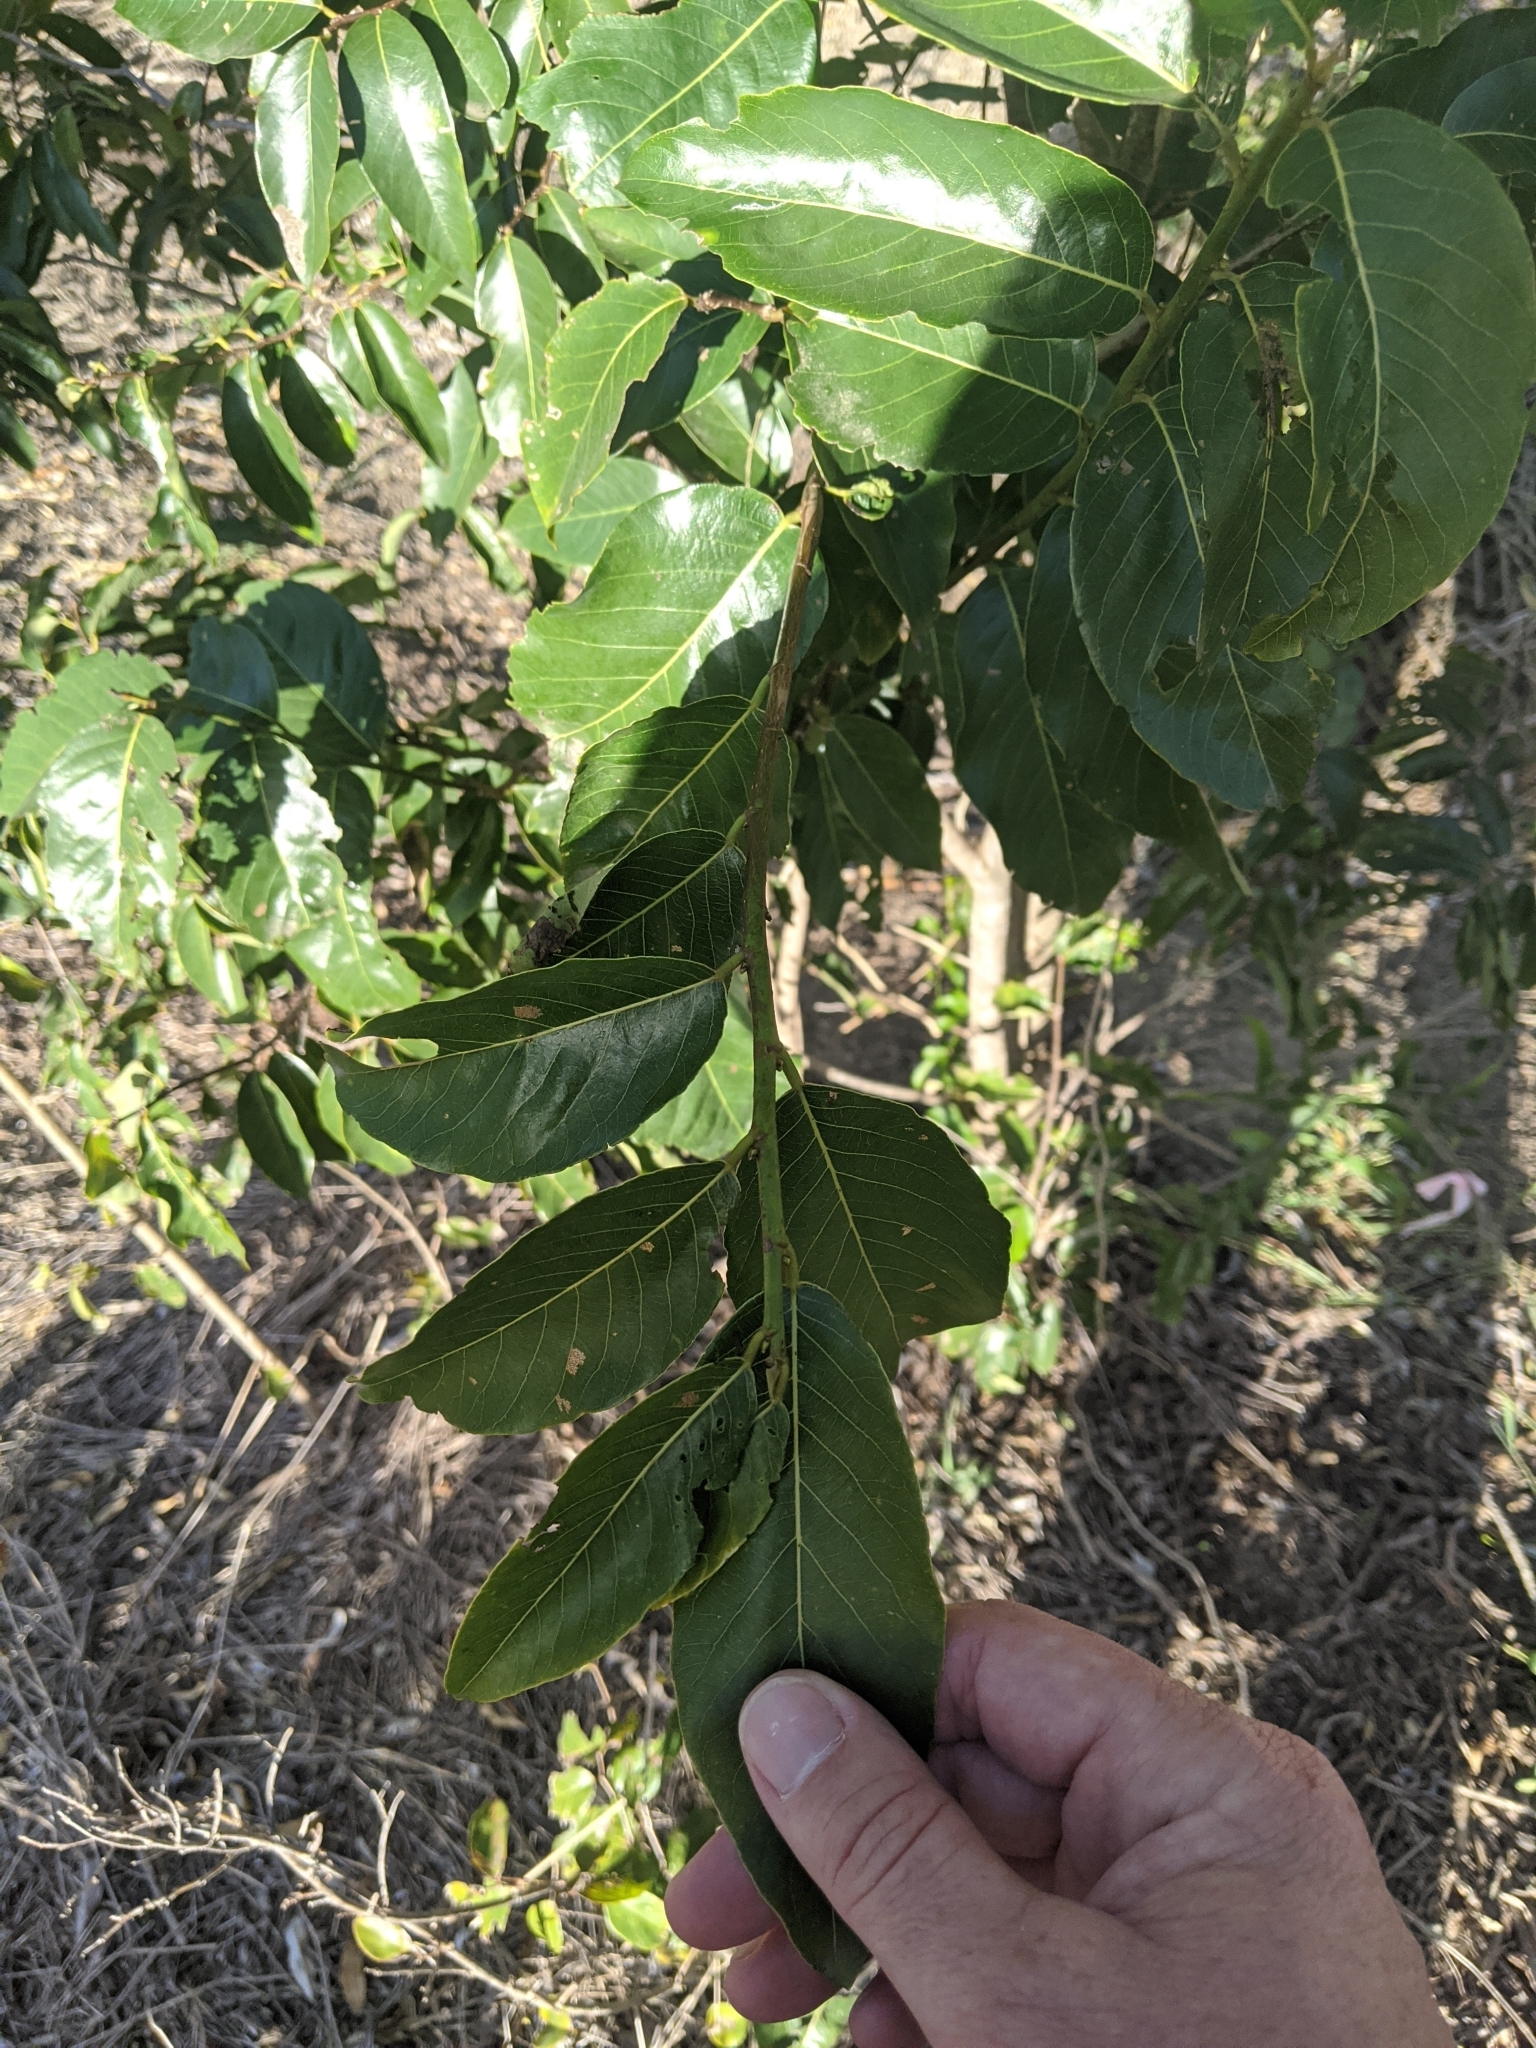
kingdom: Plantae
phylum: Tracheophyta
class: Magnoliopsida
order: Malpighiales
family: Phyllanthaceae
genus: Bridelia
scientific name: Bridelia exaltata
